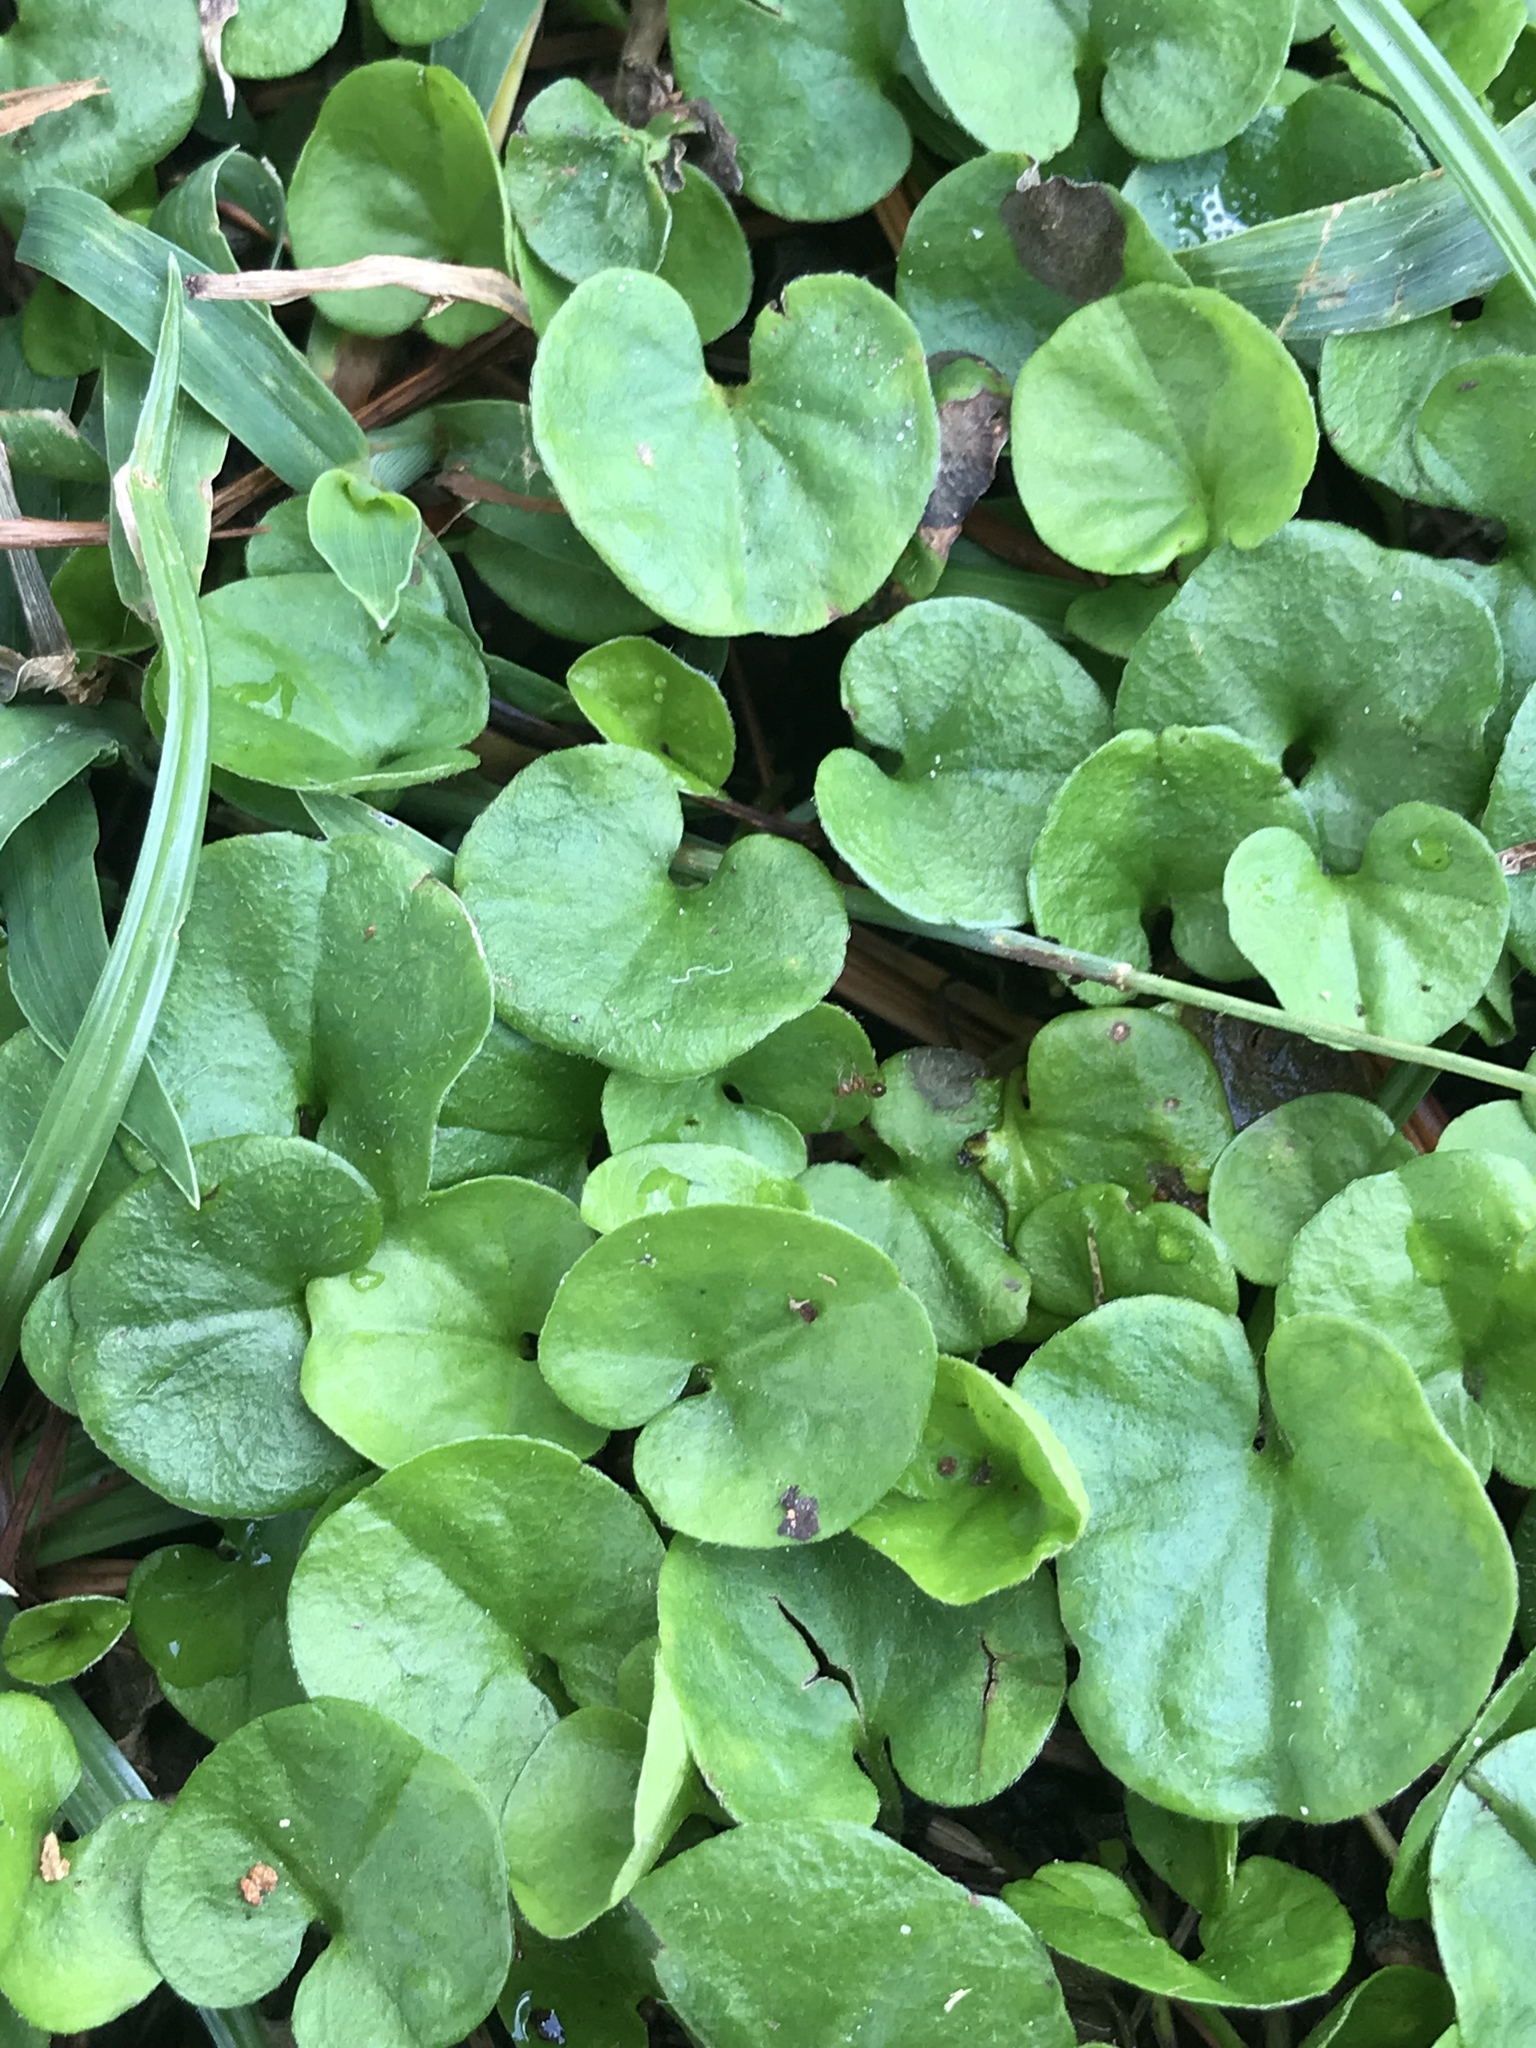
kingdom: Plantae
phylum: Tracheophyta
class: Magnoliopsida
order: Solanales
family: Convolvulaceae
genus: Dichondra
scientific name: Dichondra carolinensis
